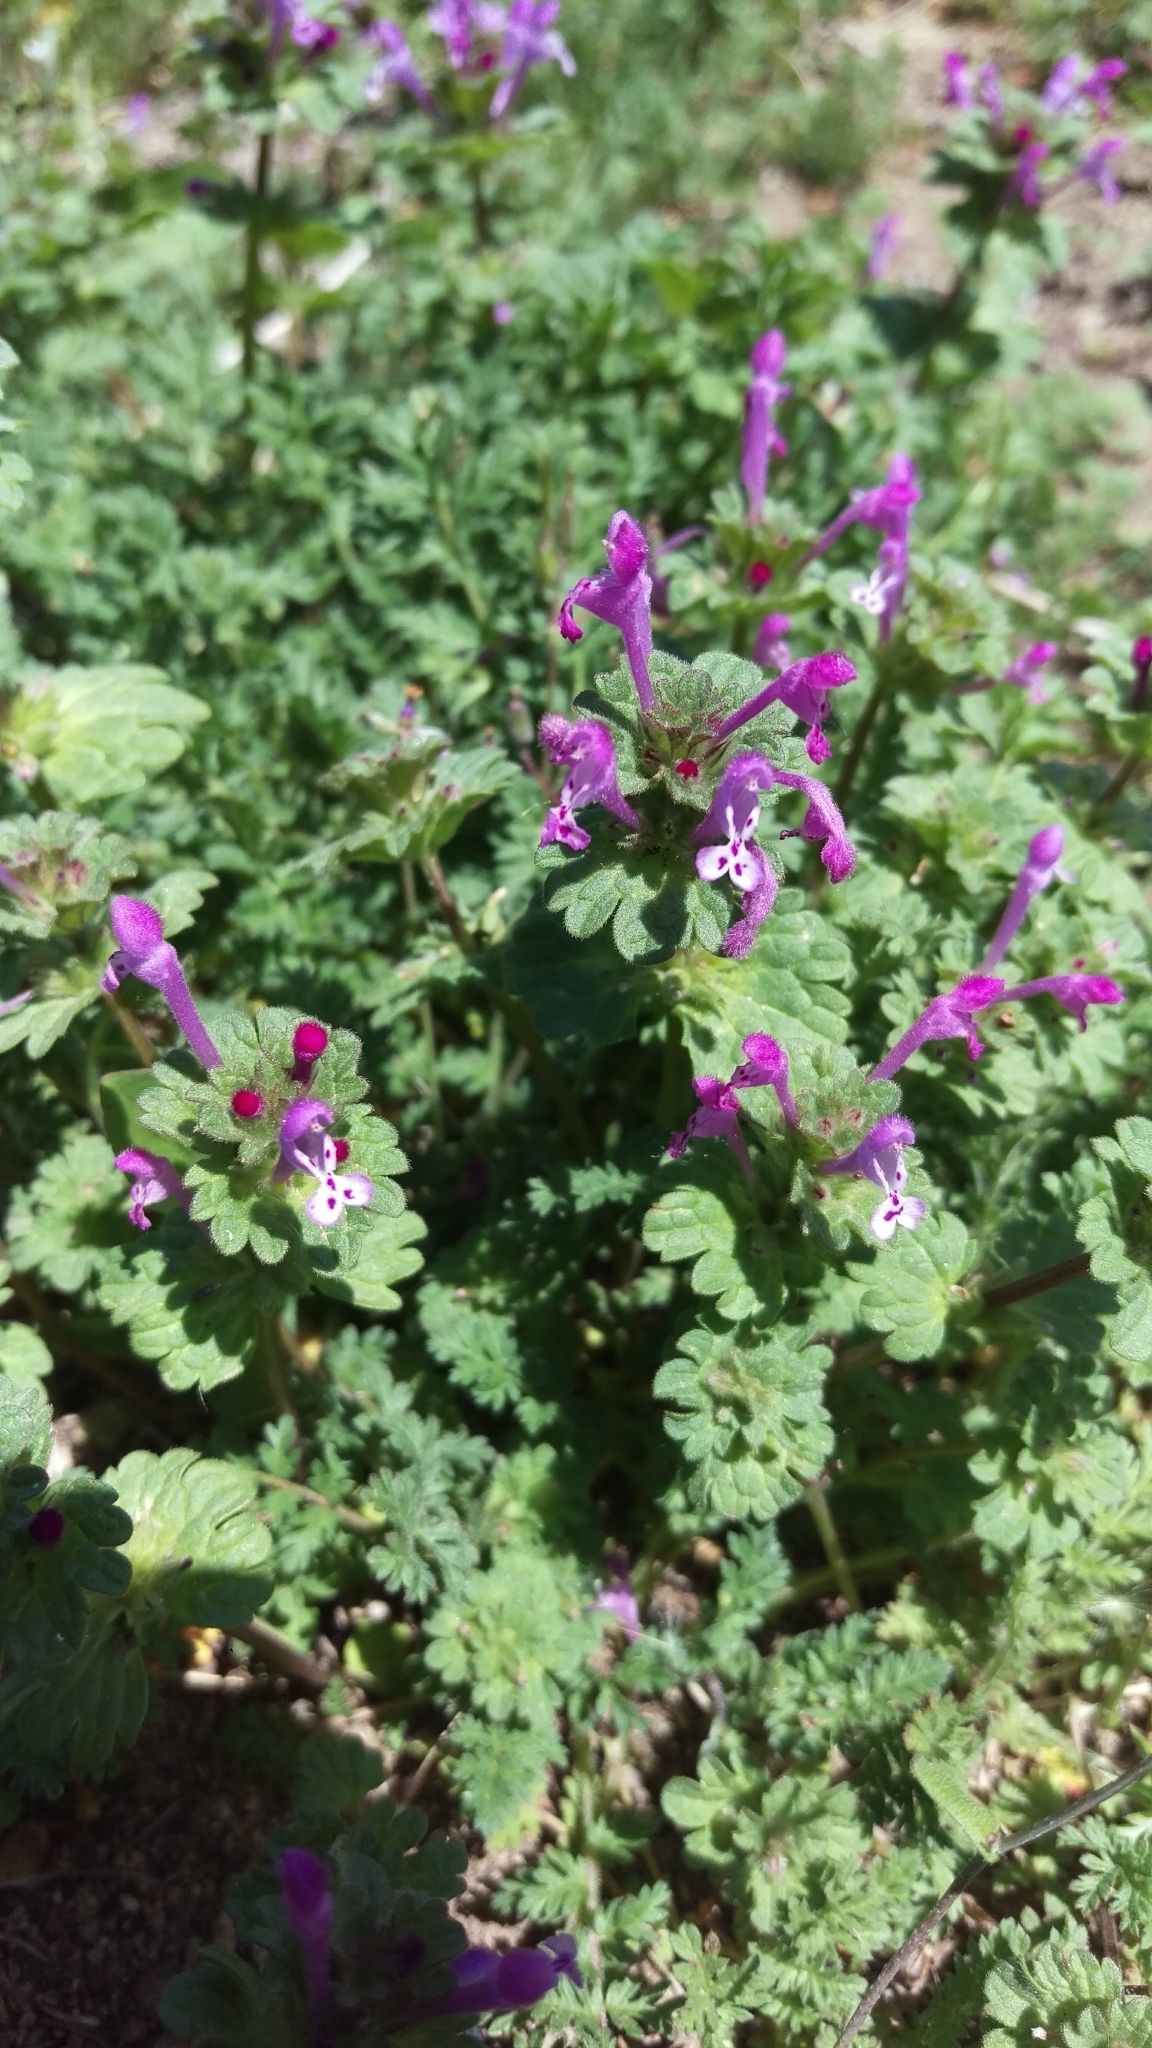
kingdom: Plantae
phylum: Tracheophyta
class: Magnoliopsida
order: Lamiales
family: Lamiaceae
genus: Lamium
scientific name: Lamium amplexicaule
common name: Henbit dead-nettle
